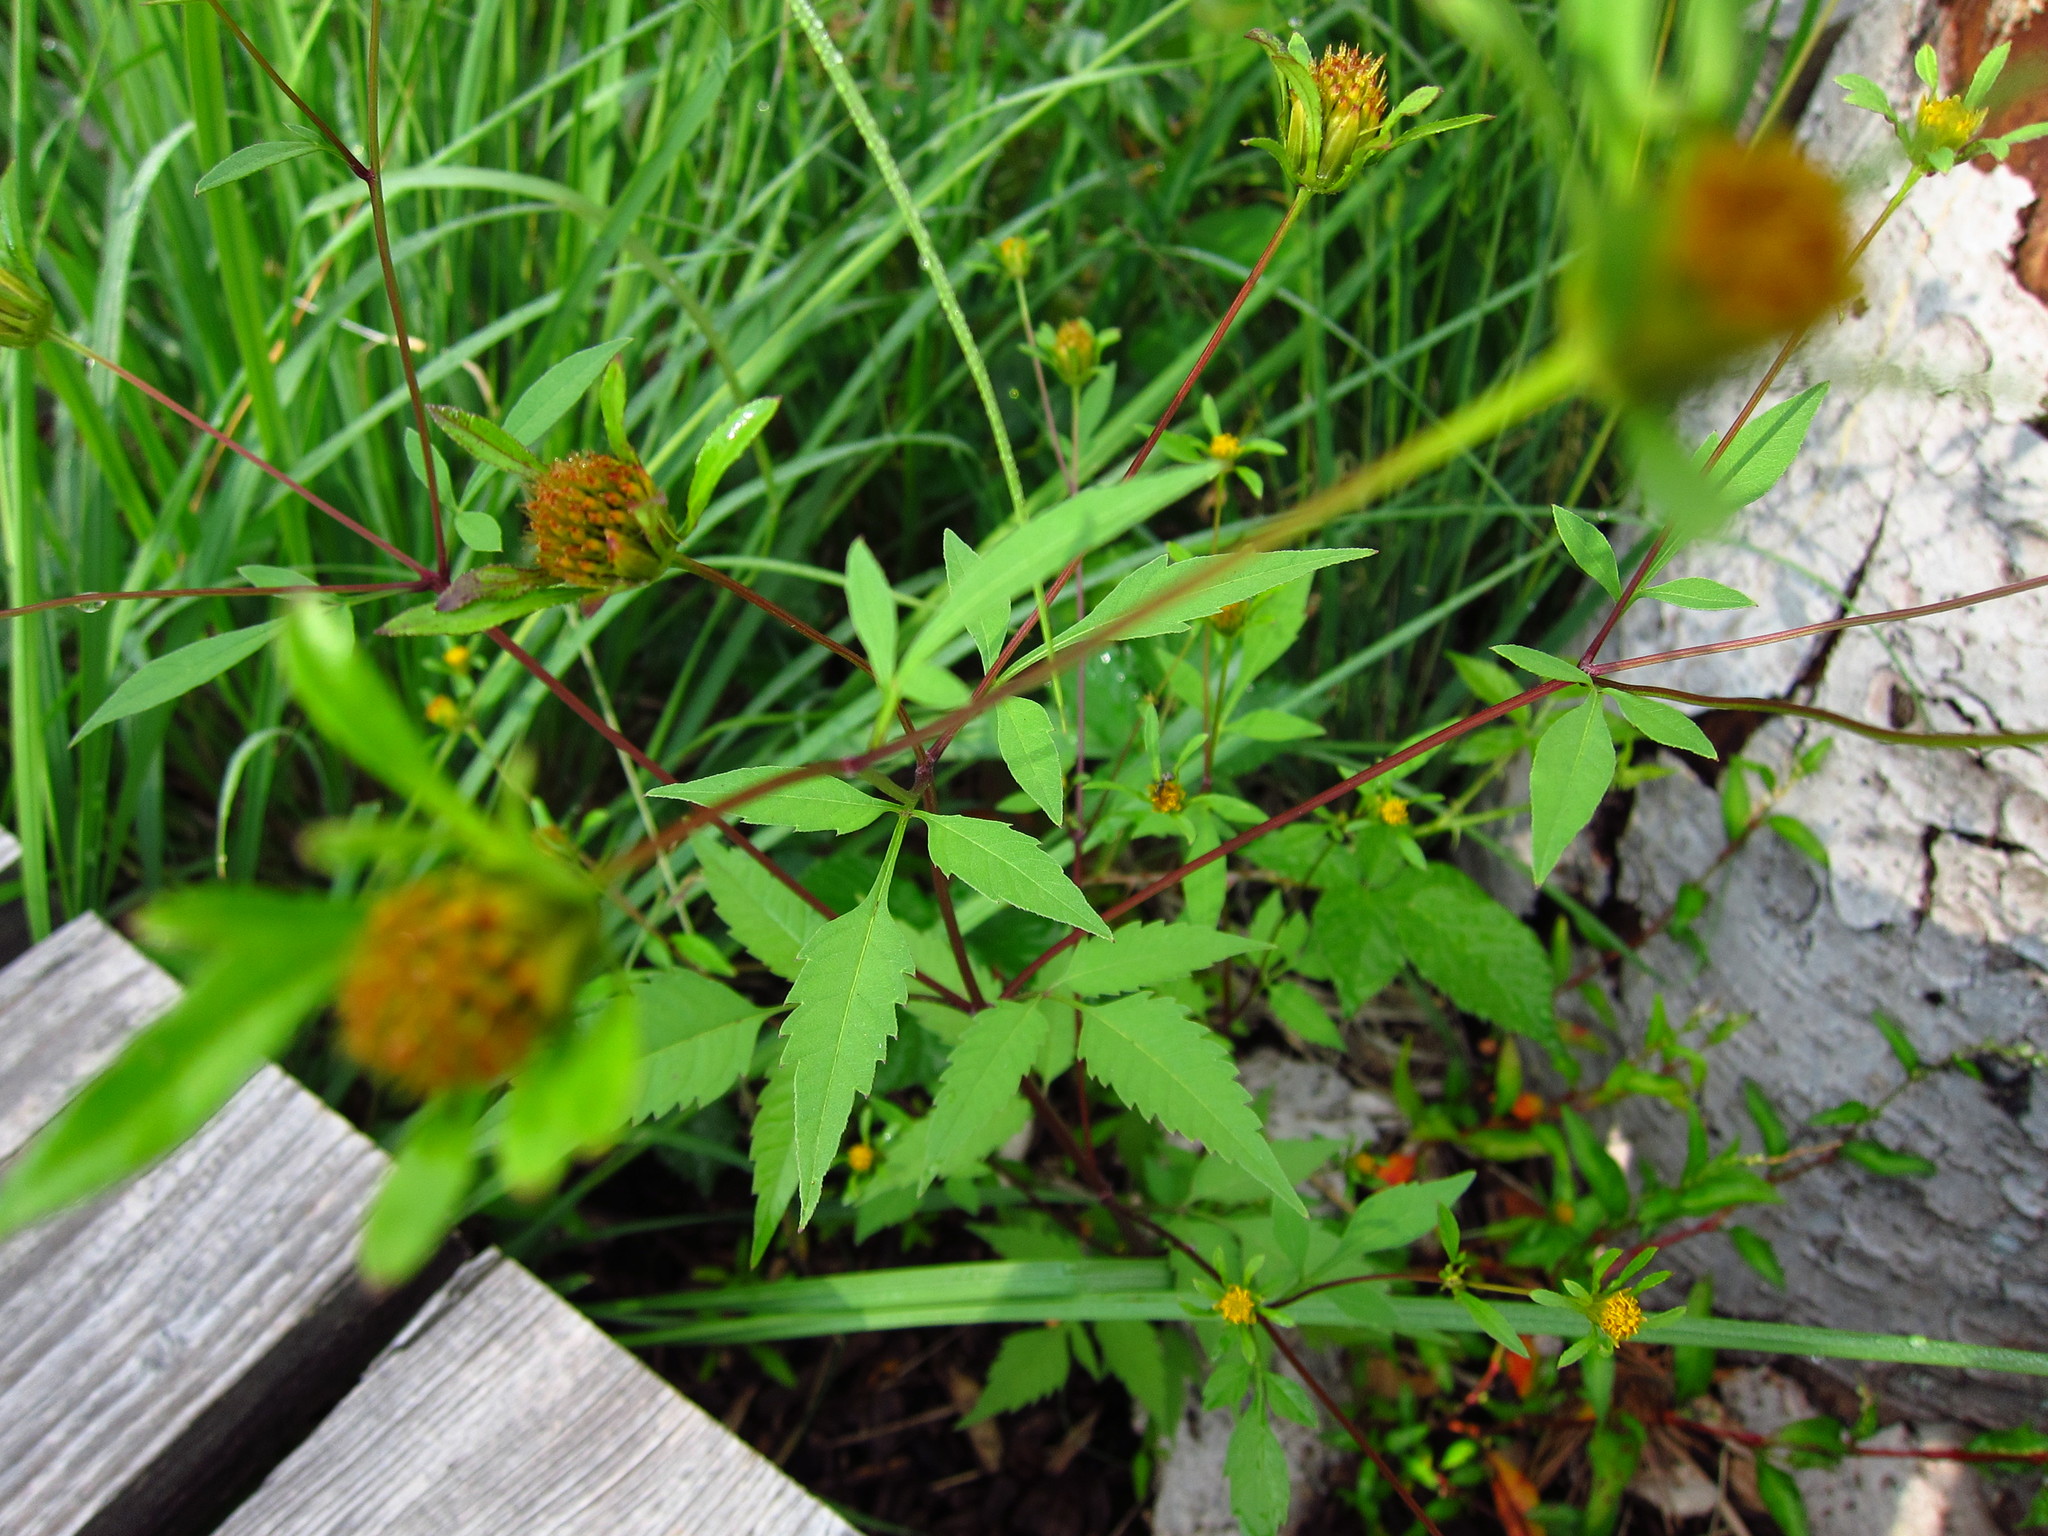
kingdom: Plantae
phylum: Tracheophyta
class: Magnoliopsida
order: Asterales
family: Asteraceae
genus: Bidens
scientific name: Bidens frondosa
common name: Beggarticks
